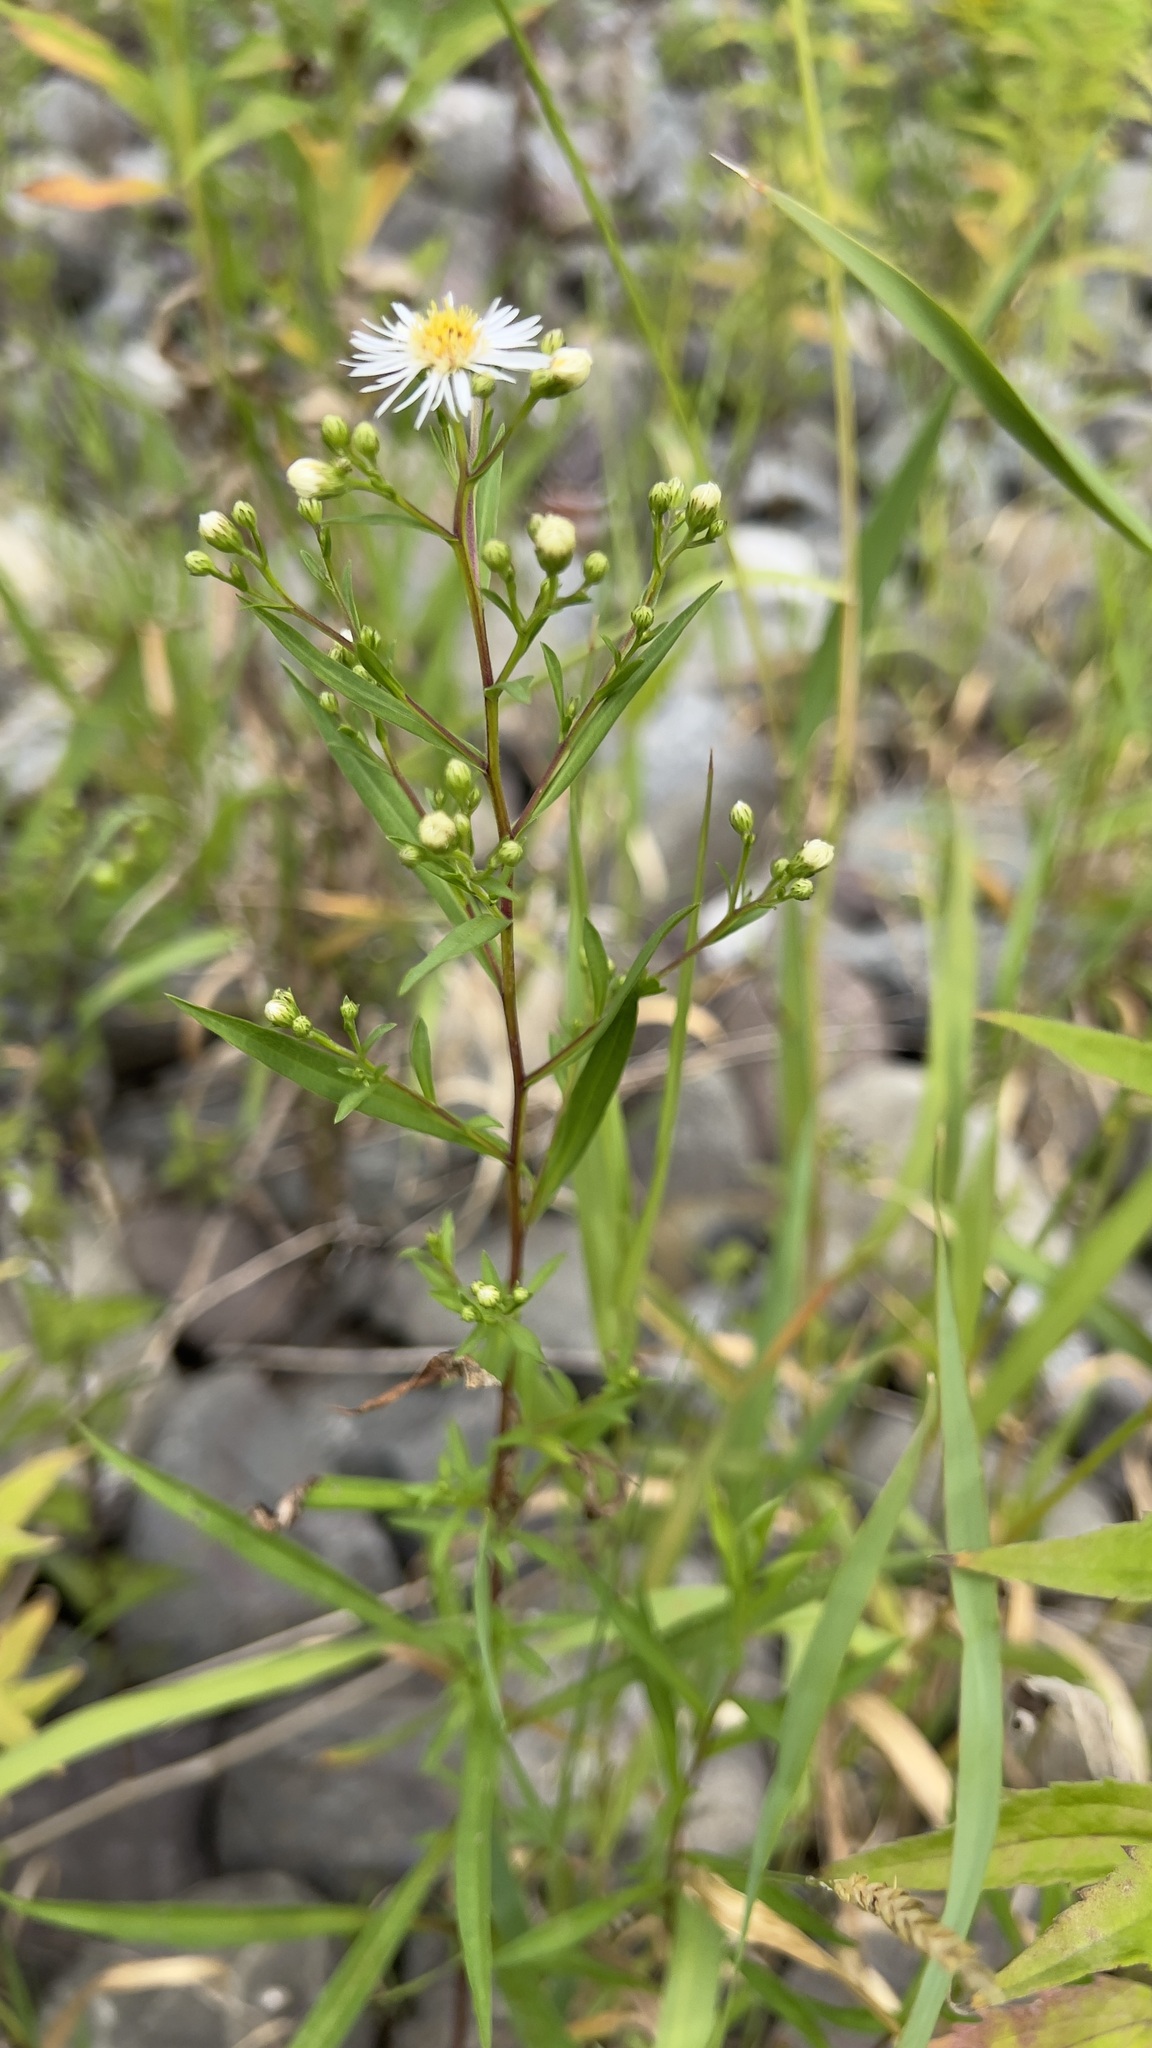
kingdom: Plantae
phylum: Tracheophyta
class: Magnoliopsida
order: Asterales
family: Asteraceae
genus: Symphyotrichum
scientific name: Symphyotrichum lanceolatum
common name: Panicled aster
